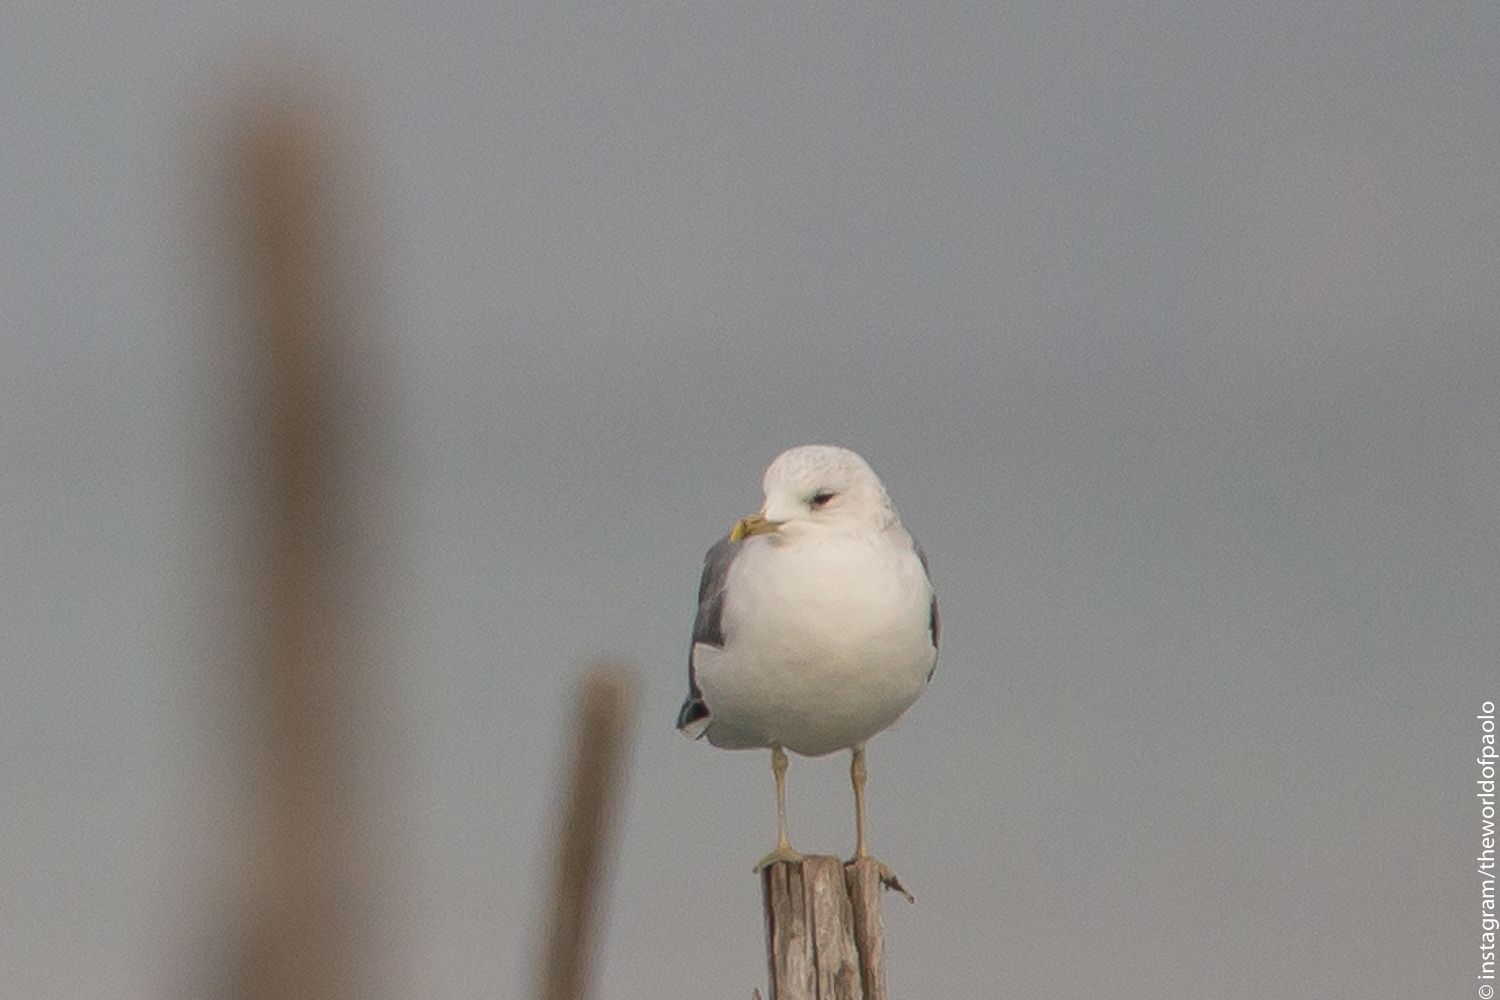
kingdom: Animalia
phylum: Chordata
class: Aves
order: Charadriiformes
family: Laridae
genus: Larus
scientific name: Larus canus
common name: Mew gull
